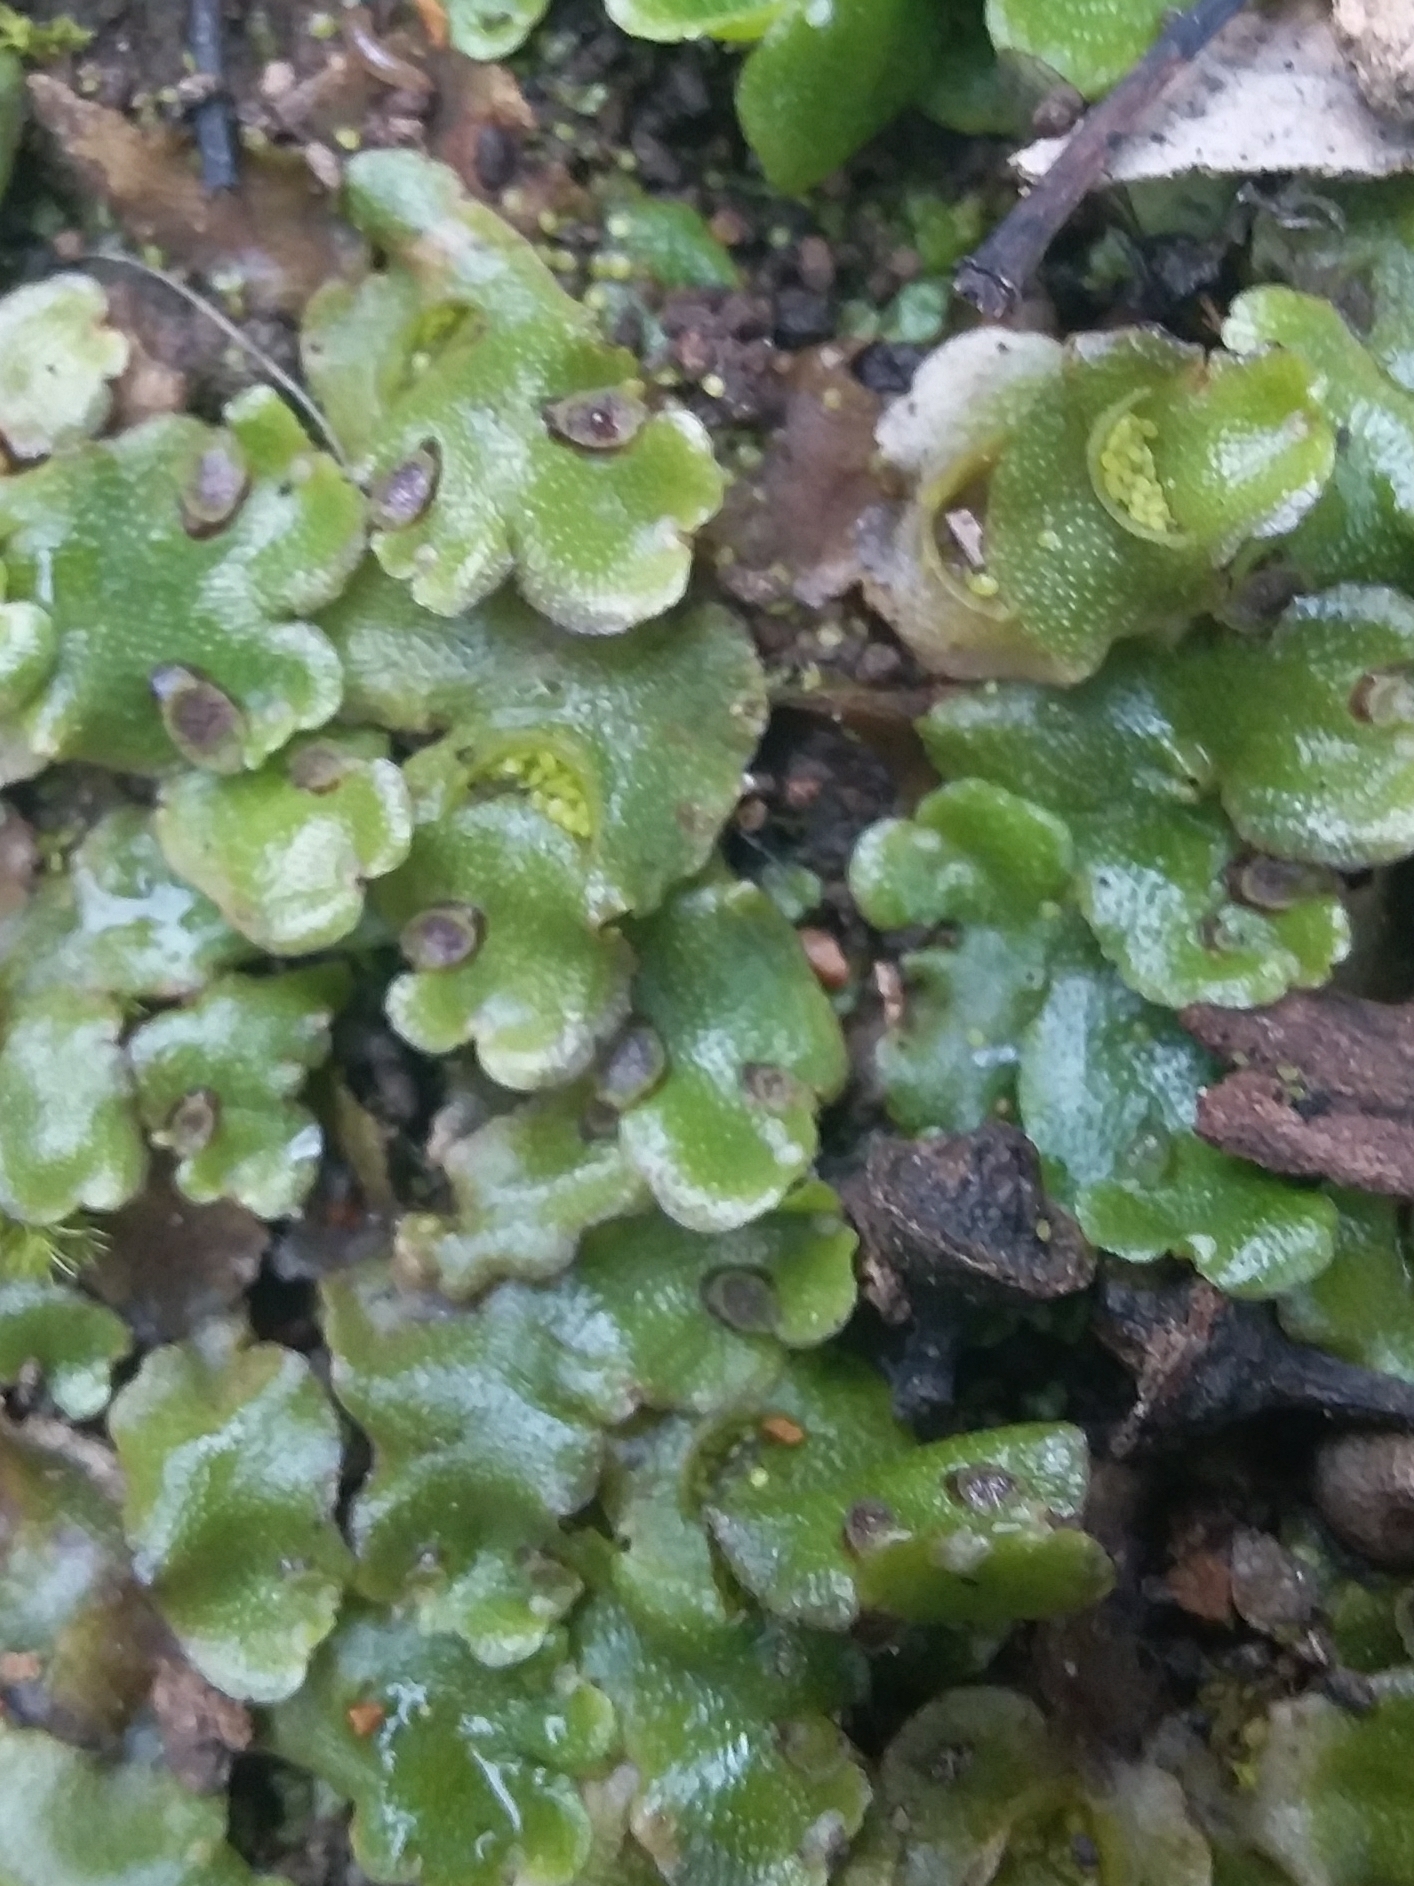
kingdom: Plantae
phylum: Marchantiophyta
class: Marchantiopsida
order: Lunulariales
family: Lunulariaceae
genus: Lunularia
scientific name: Lunularia cruciata
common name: Crescent-cup liverwort
